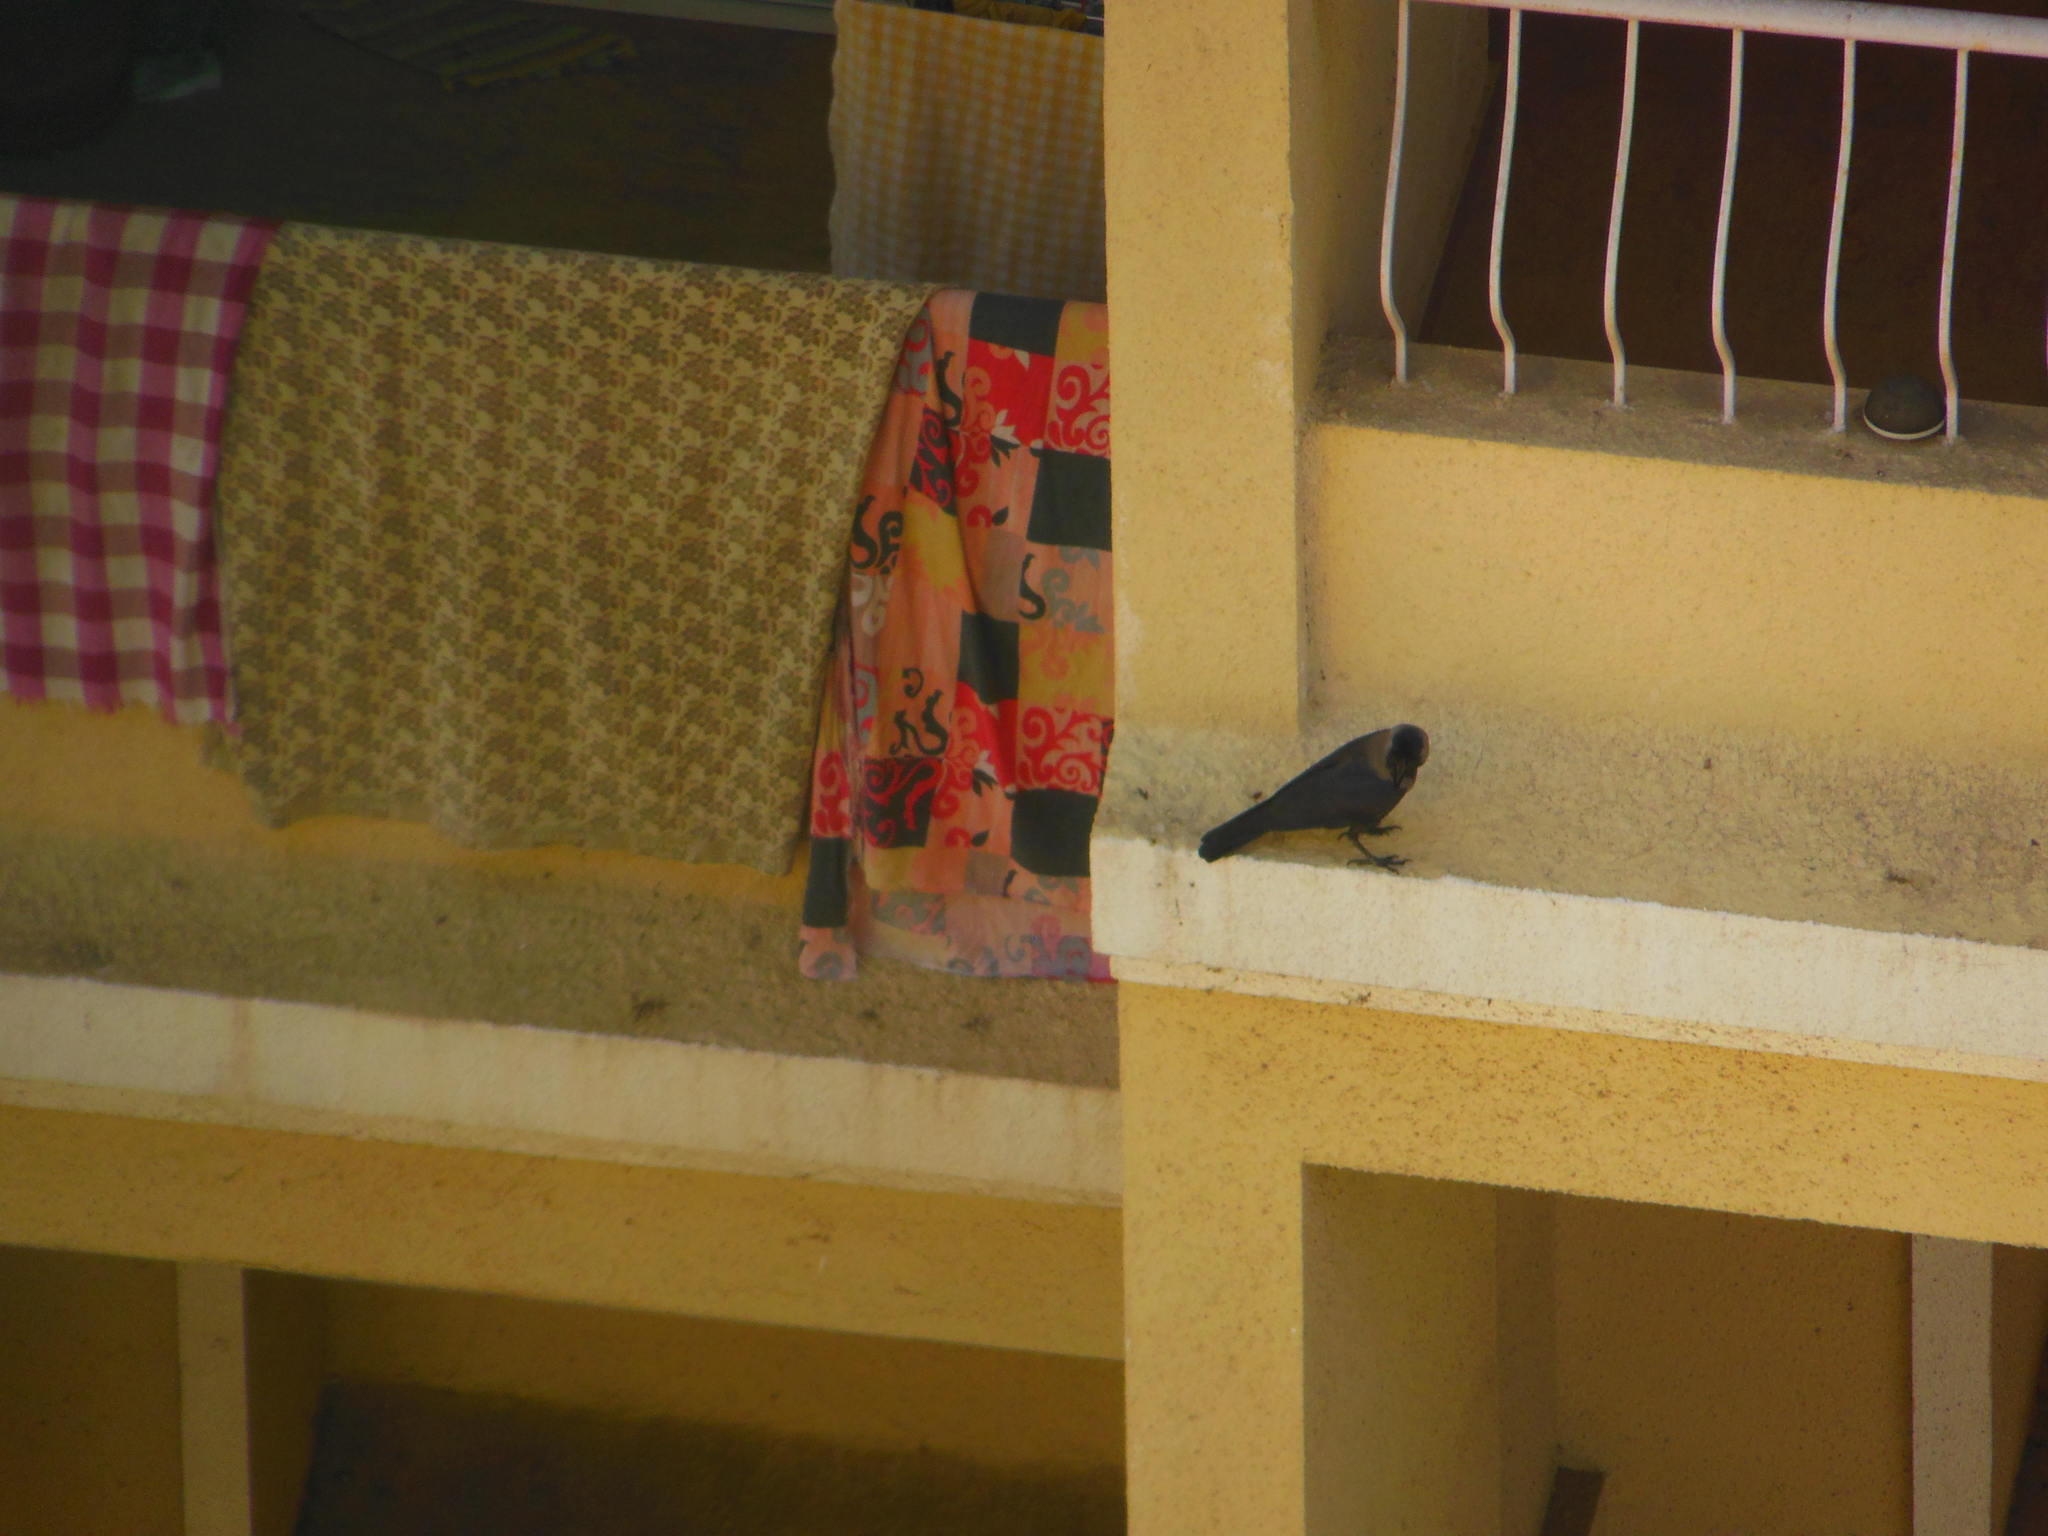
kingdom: Animalia
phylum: Chordata
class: Aves
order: Passeriformes
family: Corvidae
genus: Corvus
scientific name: Corvus splendens
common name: House crow
